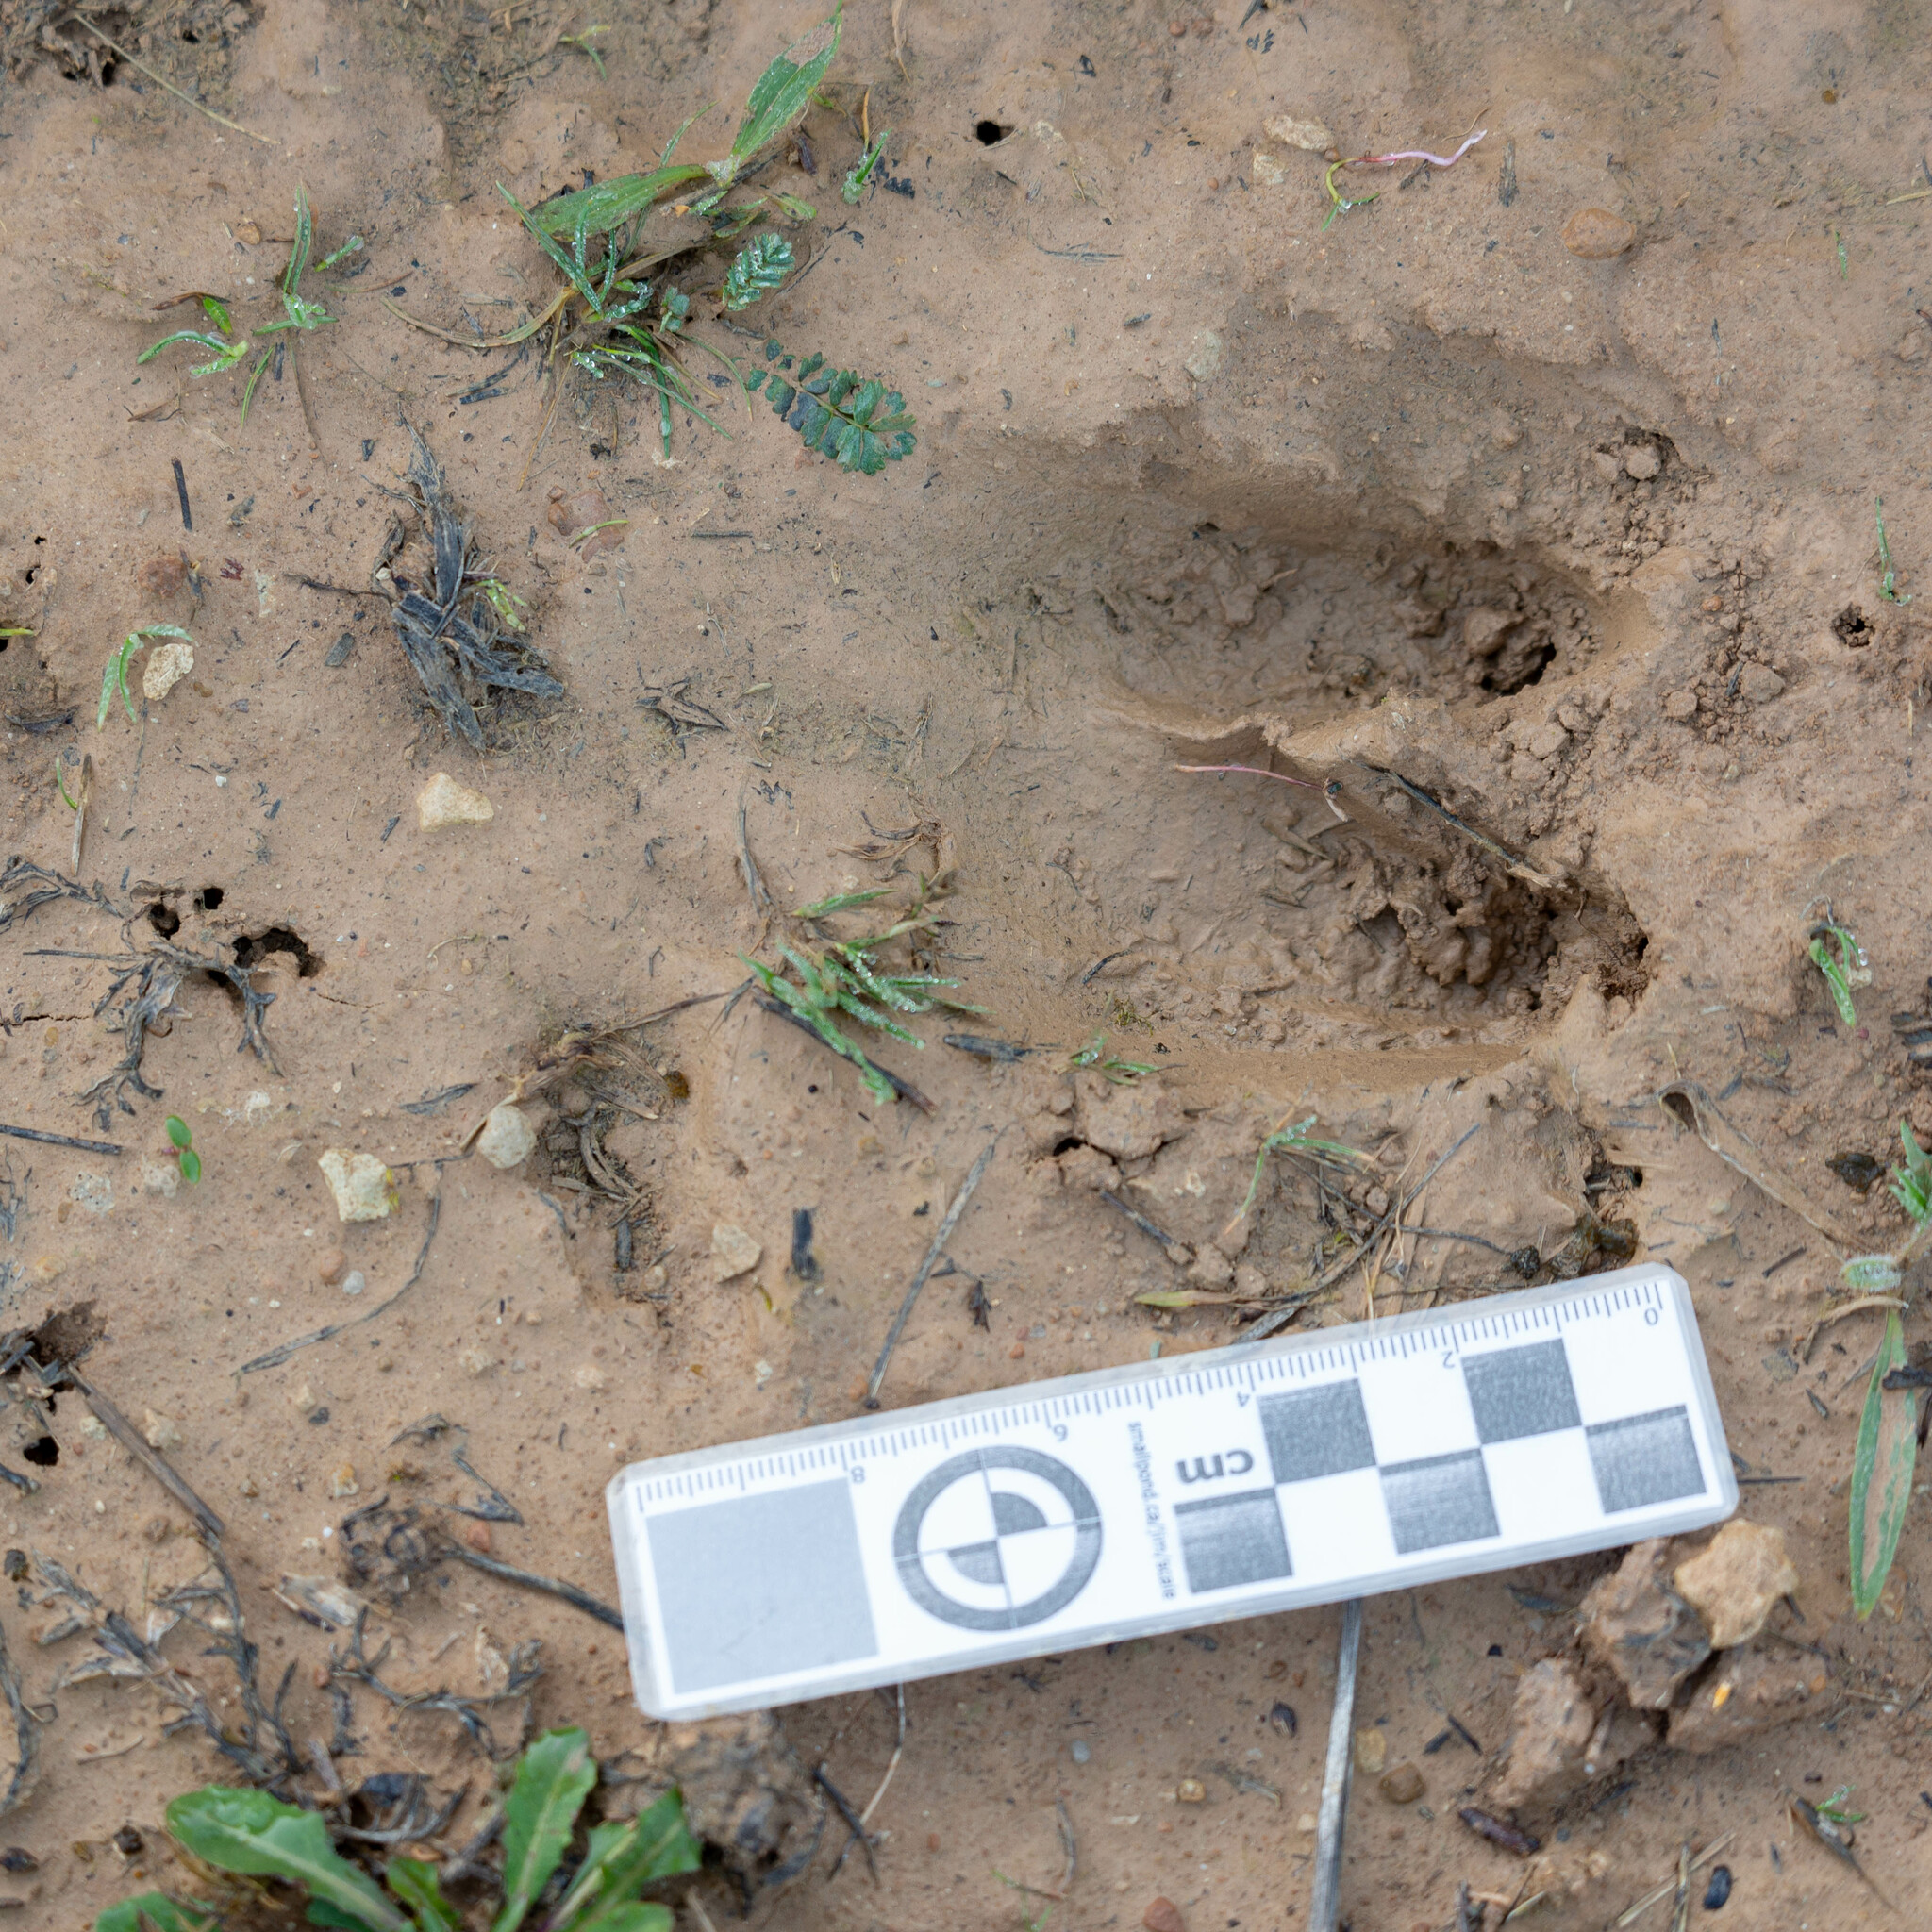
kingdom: Animalia
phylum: Chordata
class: Mammalia
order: Artiodactyla
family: Suidae
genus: Sus
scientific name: Sus scrofa
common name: Wild boar
